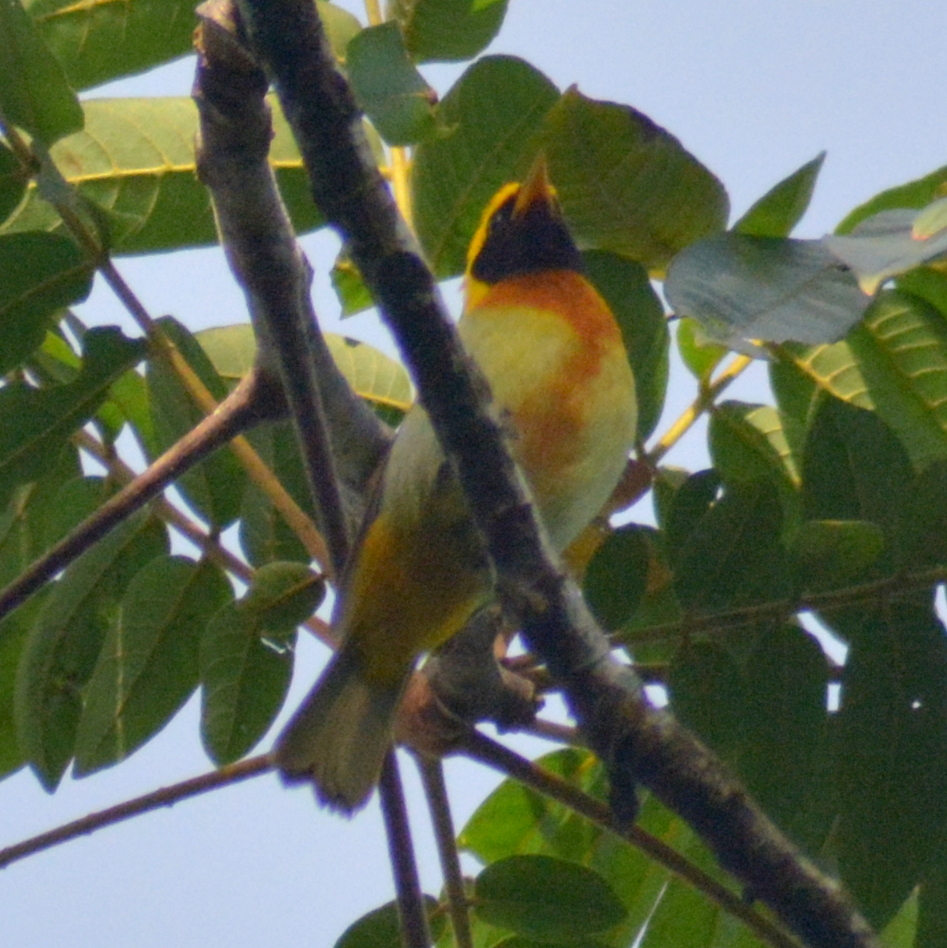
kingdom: Animalia
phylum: Chordata
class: Aves
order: Passeriformes
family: Thraupidae
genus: Hemithraupis
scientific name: Hemithraupis guira
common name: Guira tanager
